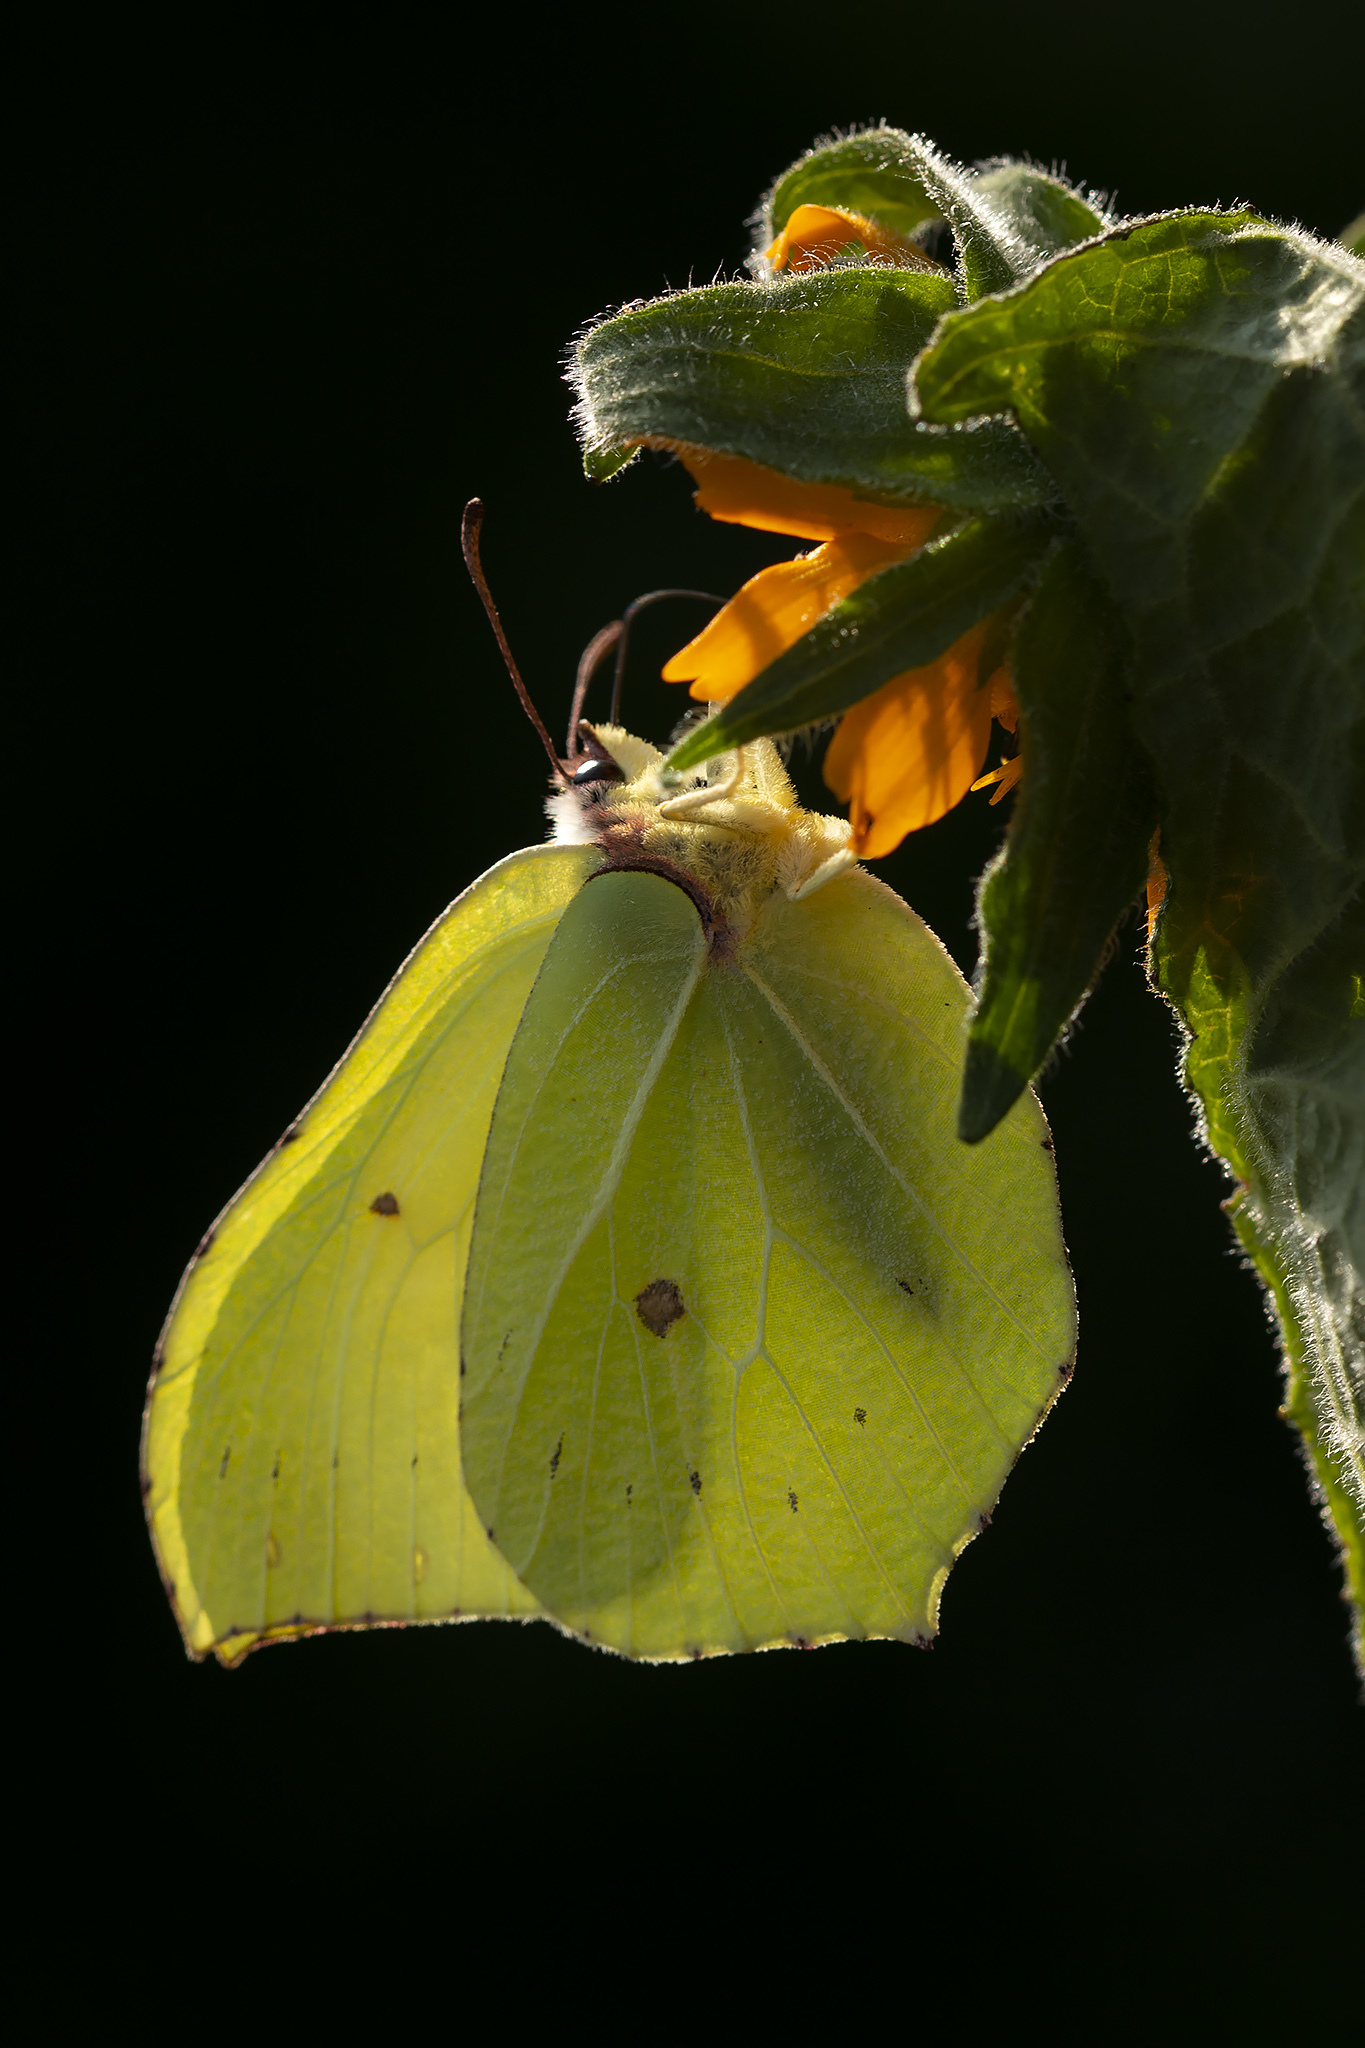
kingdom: Animalia
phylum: Arthropoda
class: Insecta
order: Lepidoptera
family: Pieridae
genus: Gonepteryx
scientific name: Gonepteryx rhamni
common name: Brimstone
